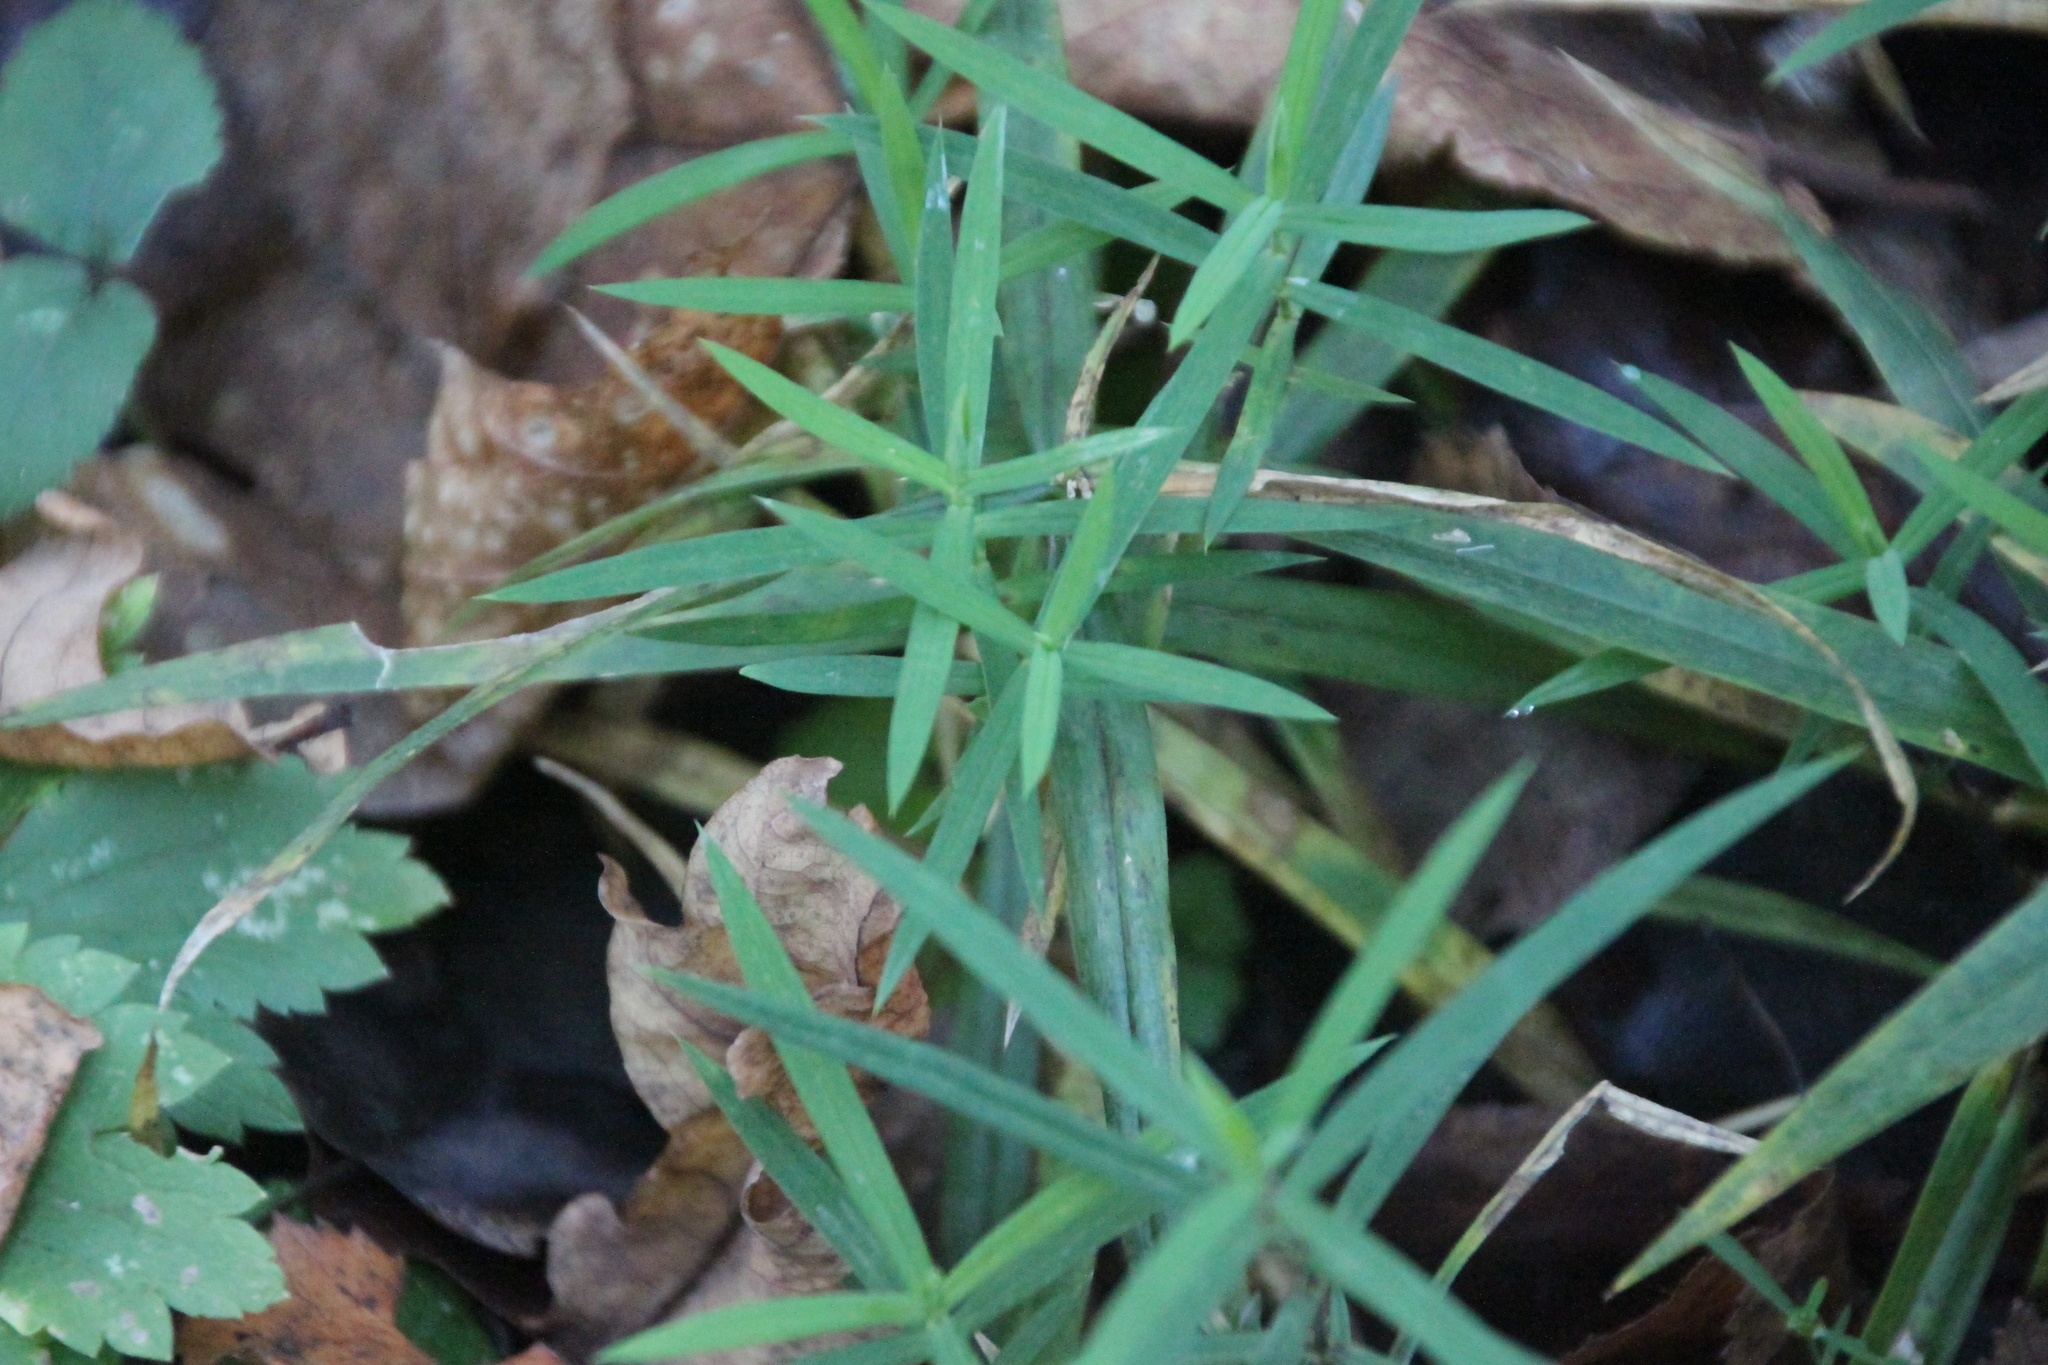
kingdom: Plantae
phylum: Tracheophyta
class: Magnoliopsida
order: Caryophyllales
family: Caryophyllaceae
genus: Rabelera
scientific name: Rabelera holostea
